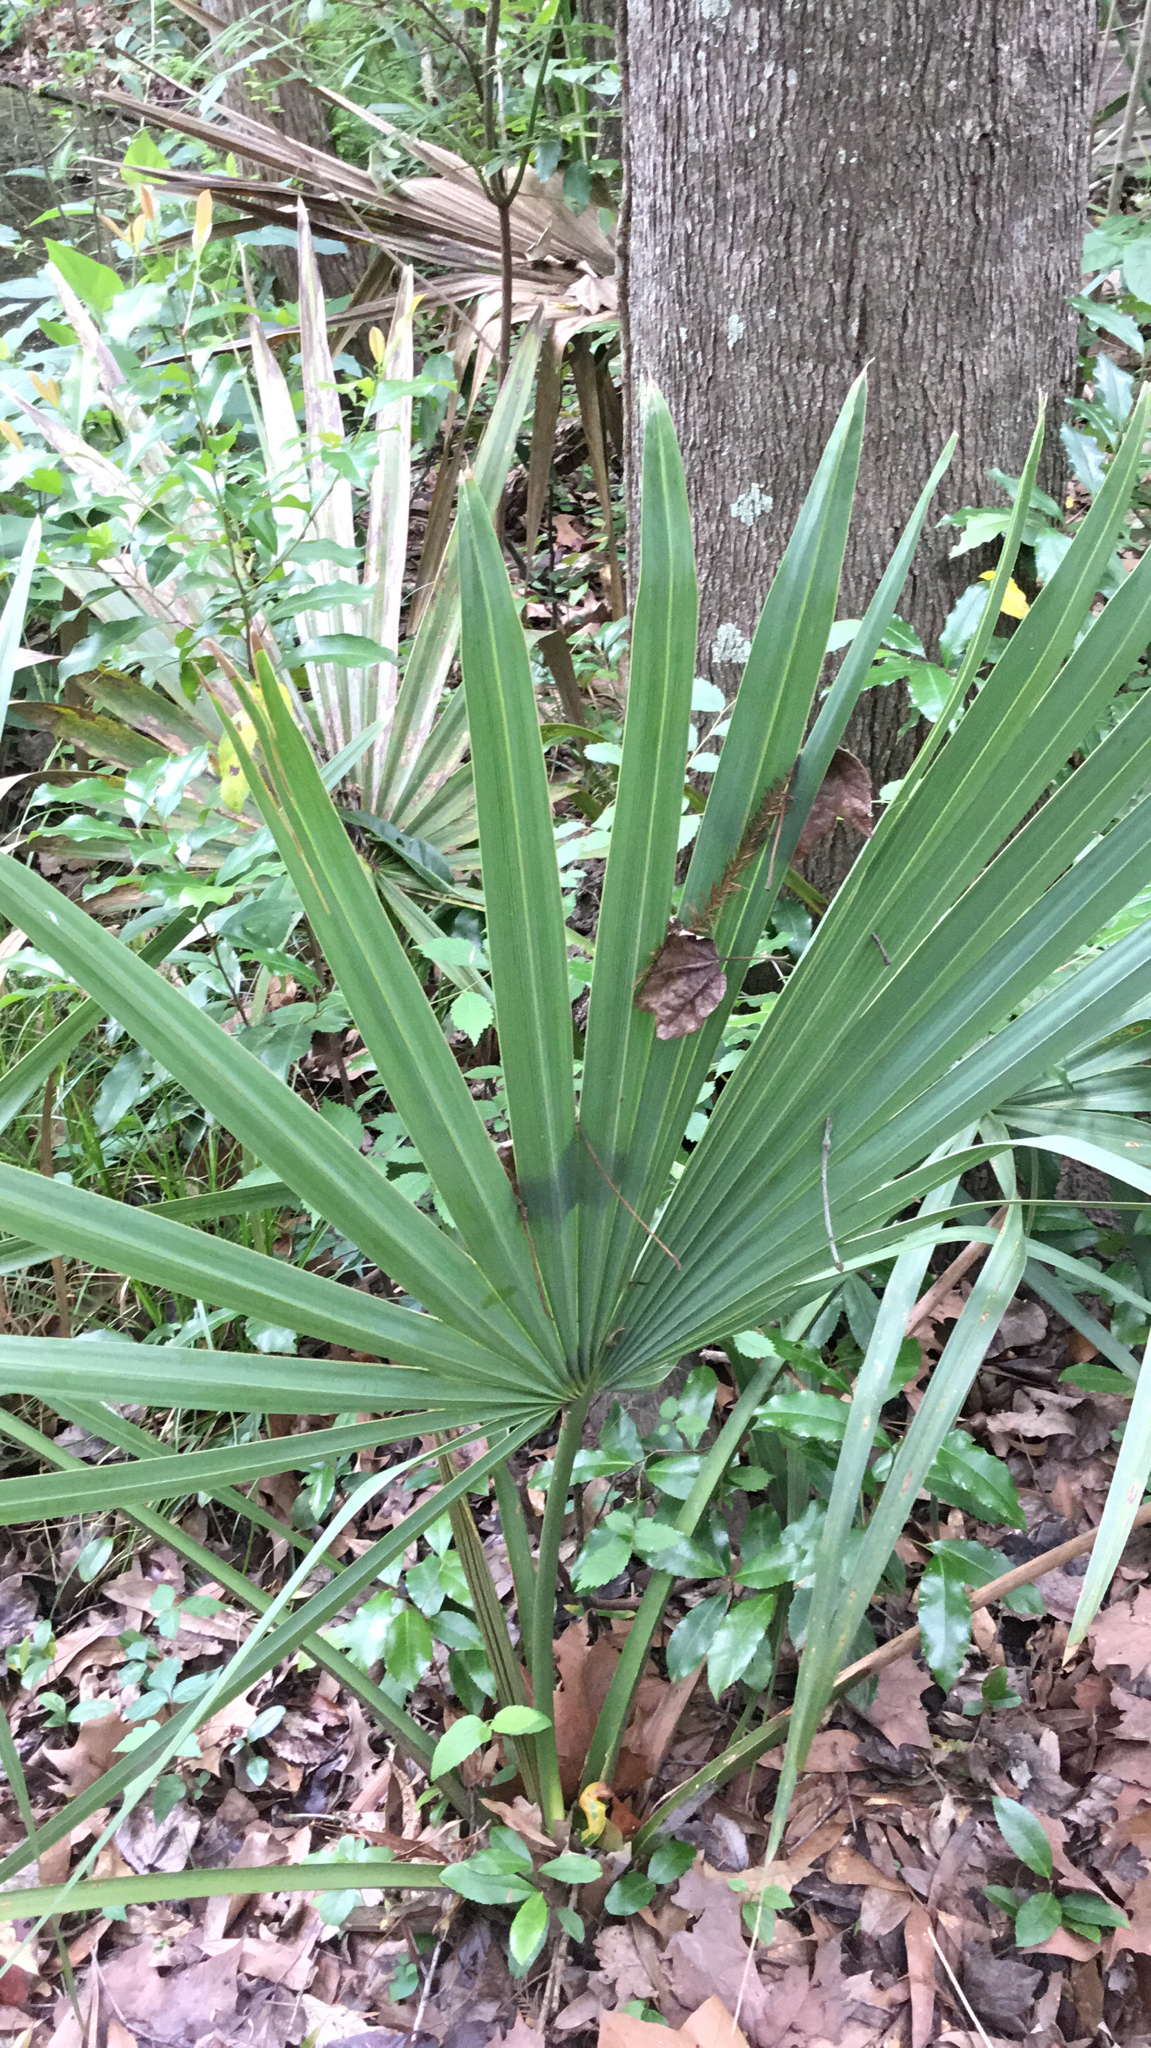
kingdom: Plantae
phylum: Tracheophyta
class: Liliopsida
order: Arecales
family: Arecaceae
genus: Sabal
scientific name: Sabal minor
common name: Dwarf palmetto
